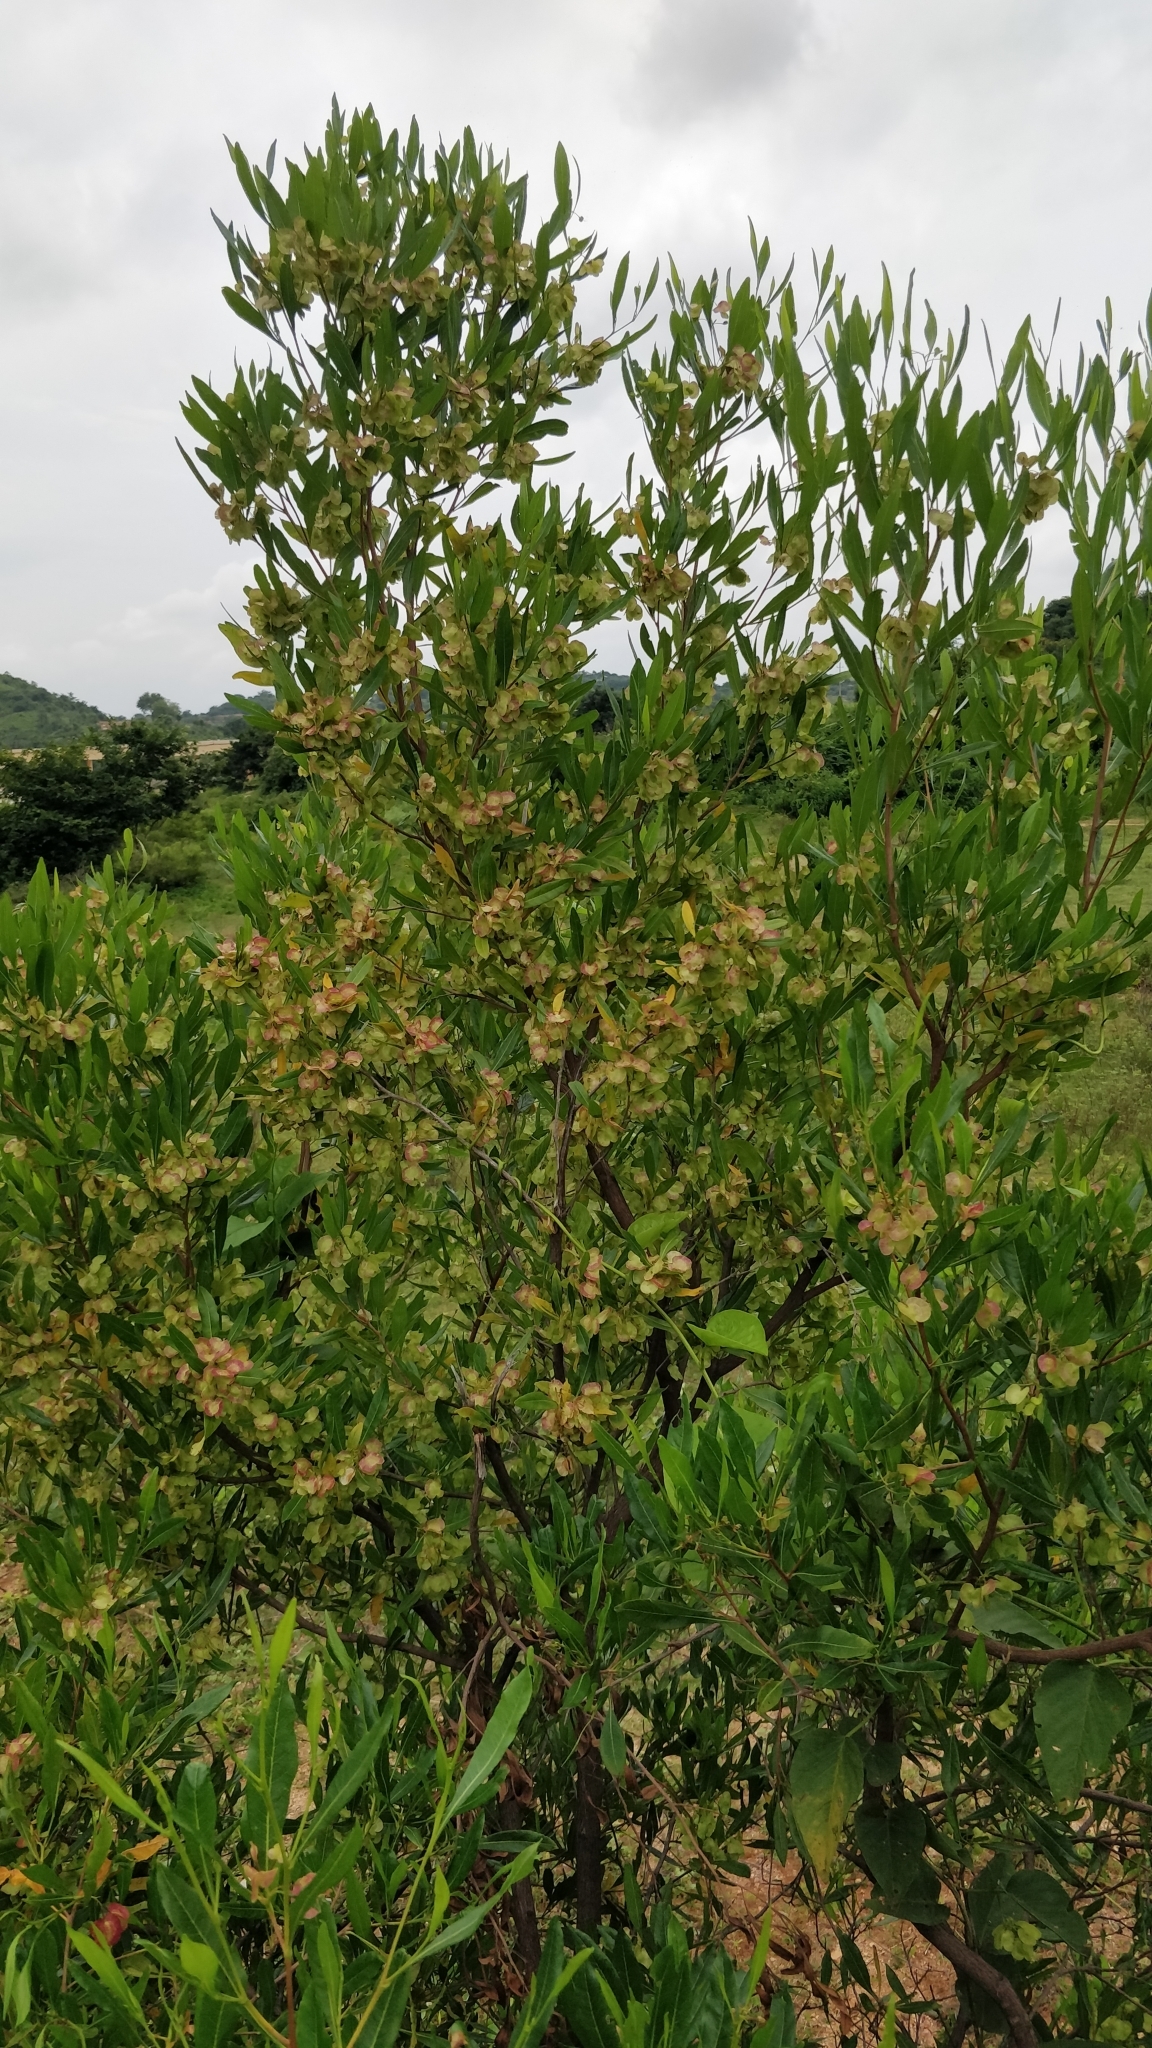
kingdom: Plantae
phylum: Tracheophyta
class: Magnoliopsida
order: Sapindales
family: Sapindaceae
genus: Dodonaea
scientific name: Dodonaea viscosa
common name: Hopbush
